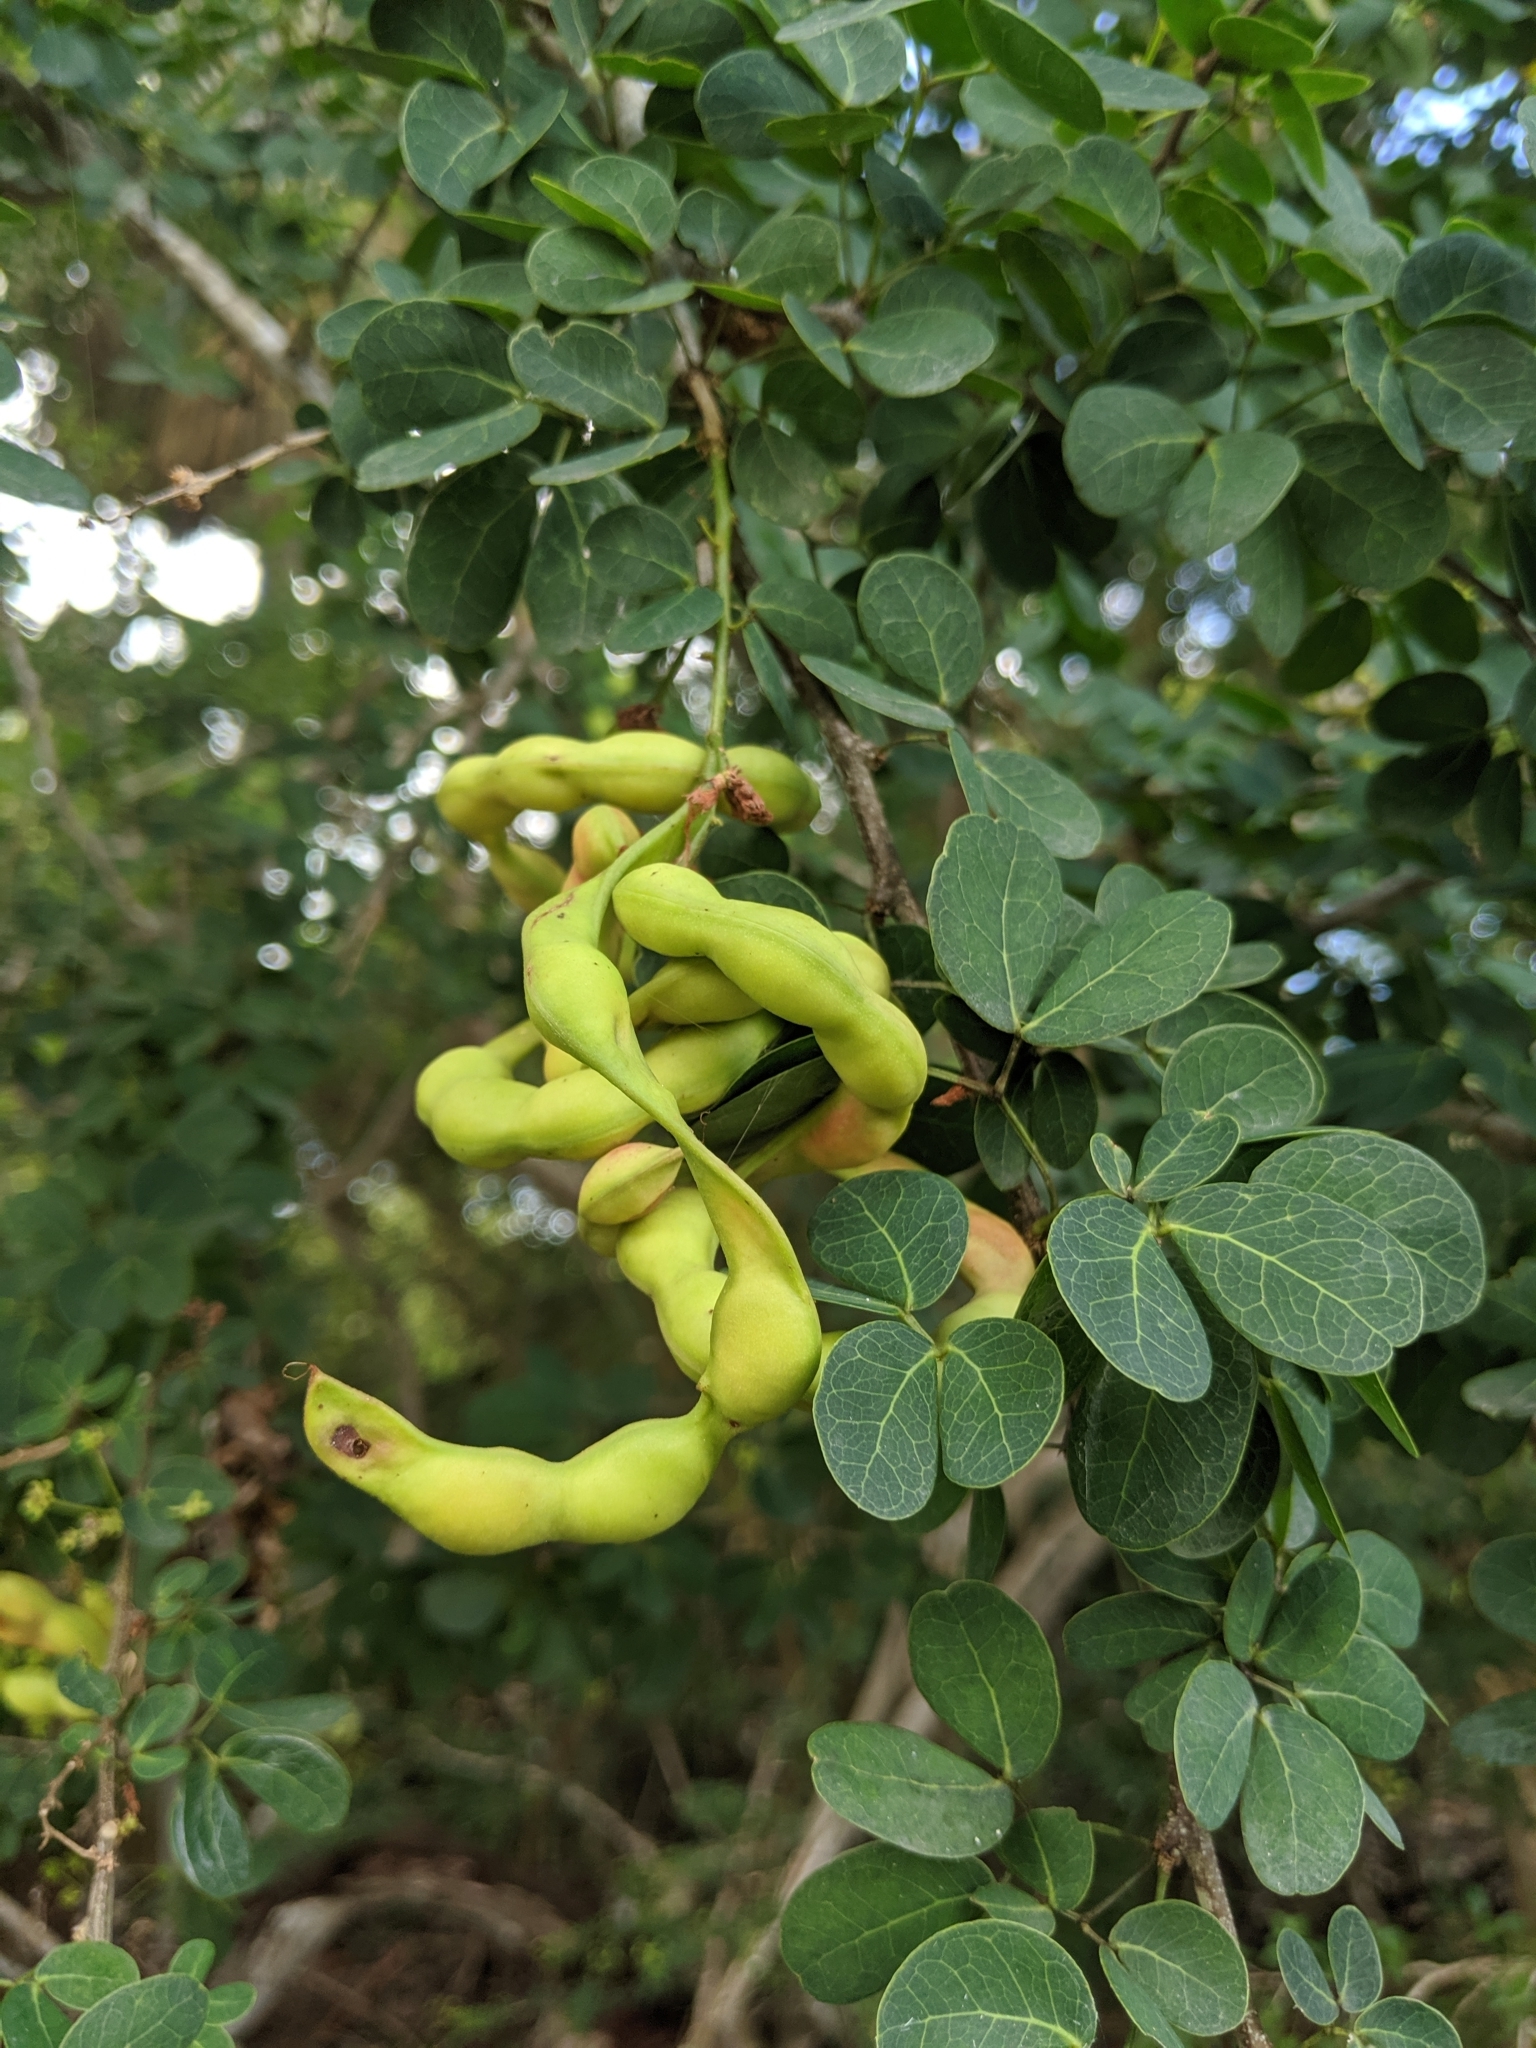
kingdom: Plantae
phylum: Tracheophyta
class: Magnoliopsida
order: Fabales
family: Fabaceae
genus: Pithecellobium
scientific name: Pithecellobium unguis-cati
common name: Cat's-claw
